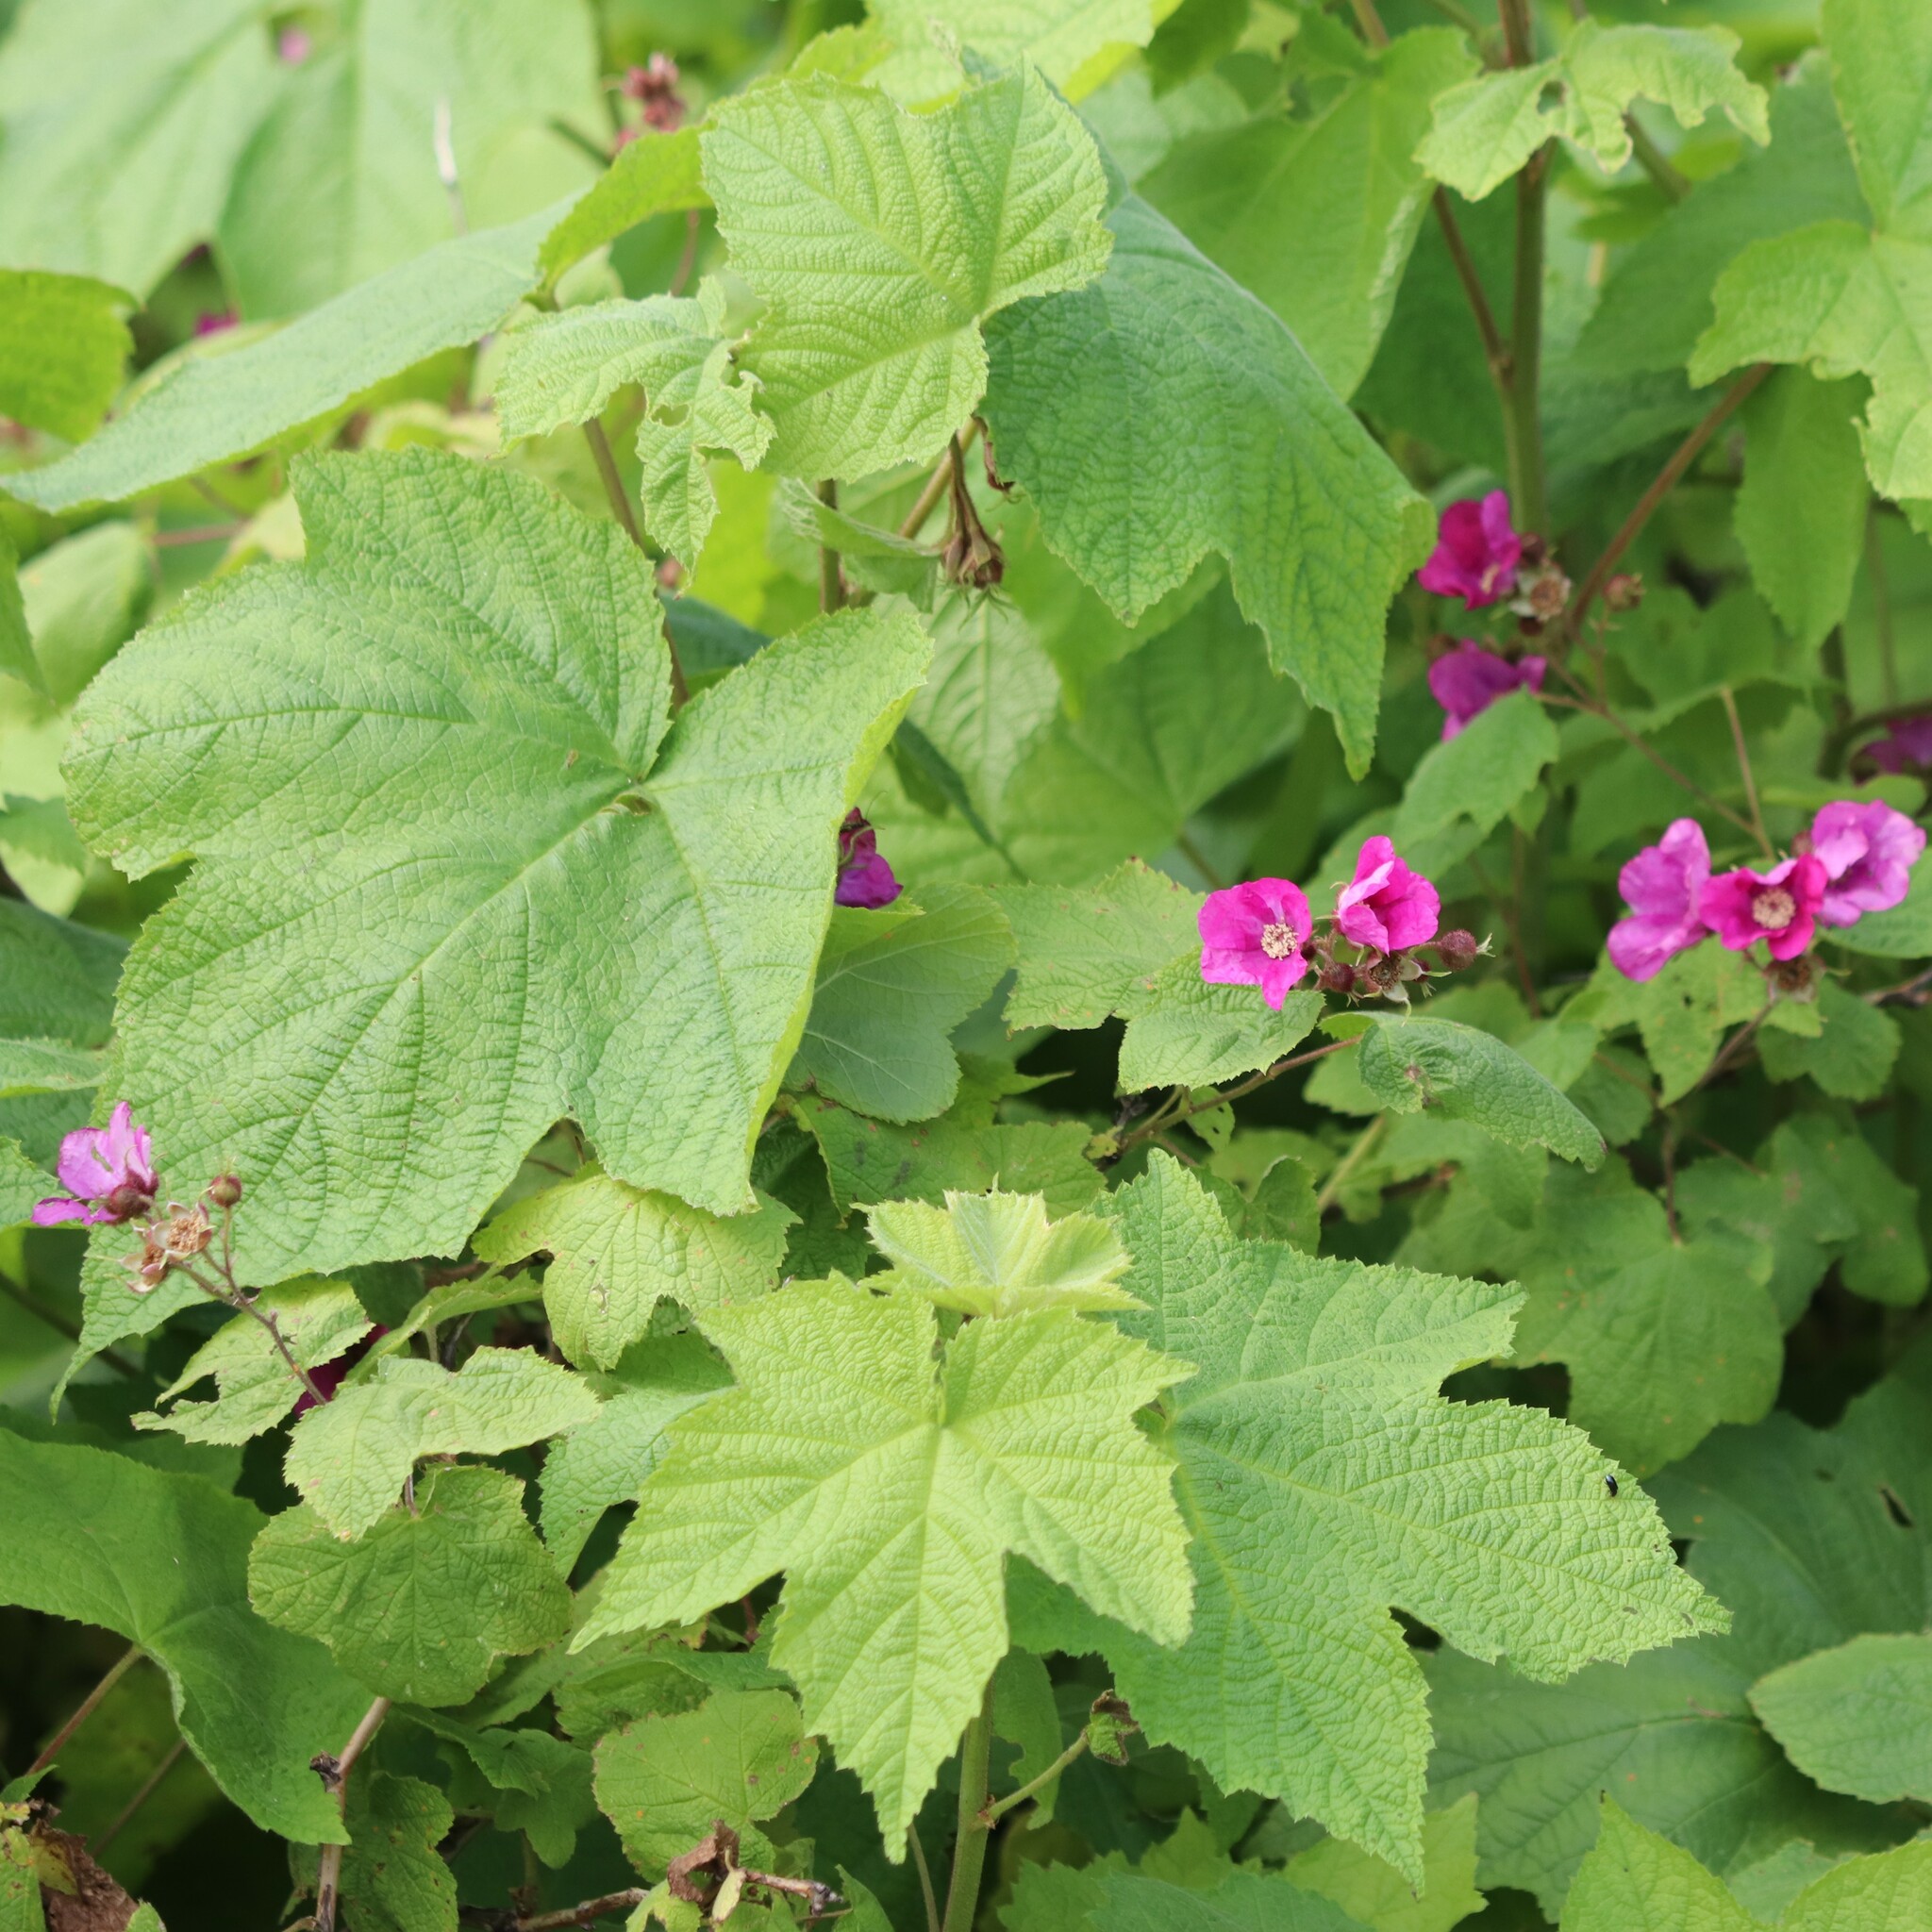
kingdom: Plantae
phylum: Tracheophyta
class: Magnoliopsida
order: Rosales
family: Rosaceae
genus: Rubus
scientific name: Rubus odoratus
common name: Purple-flowered raspberry
